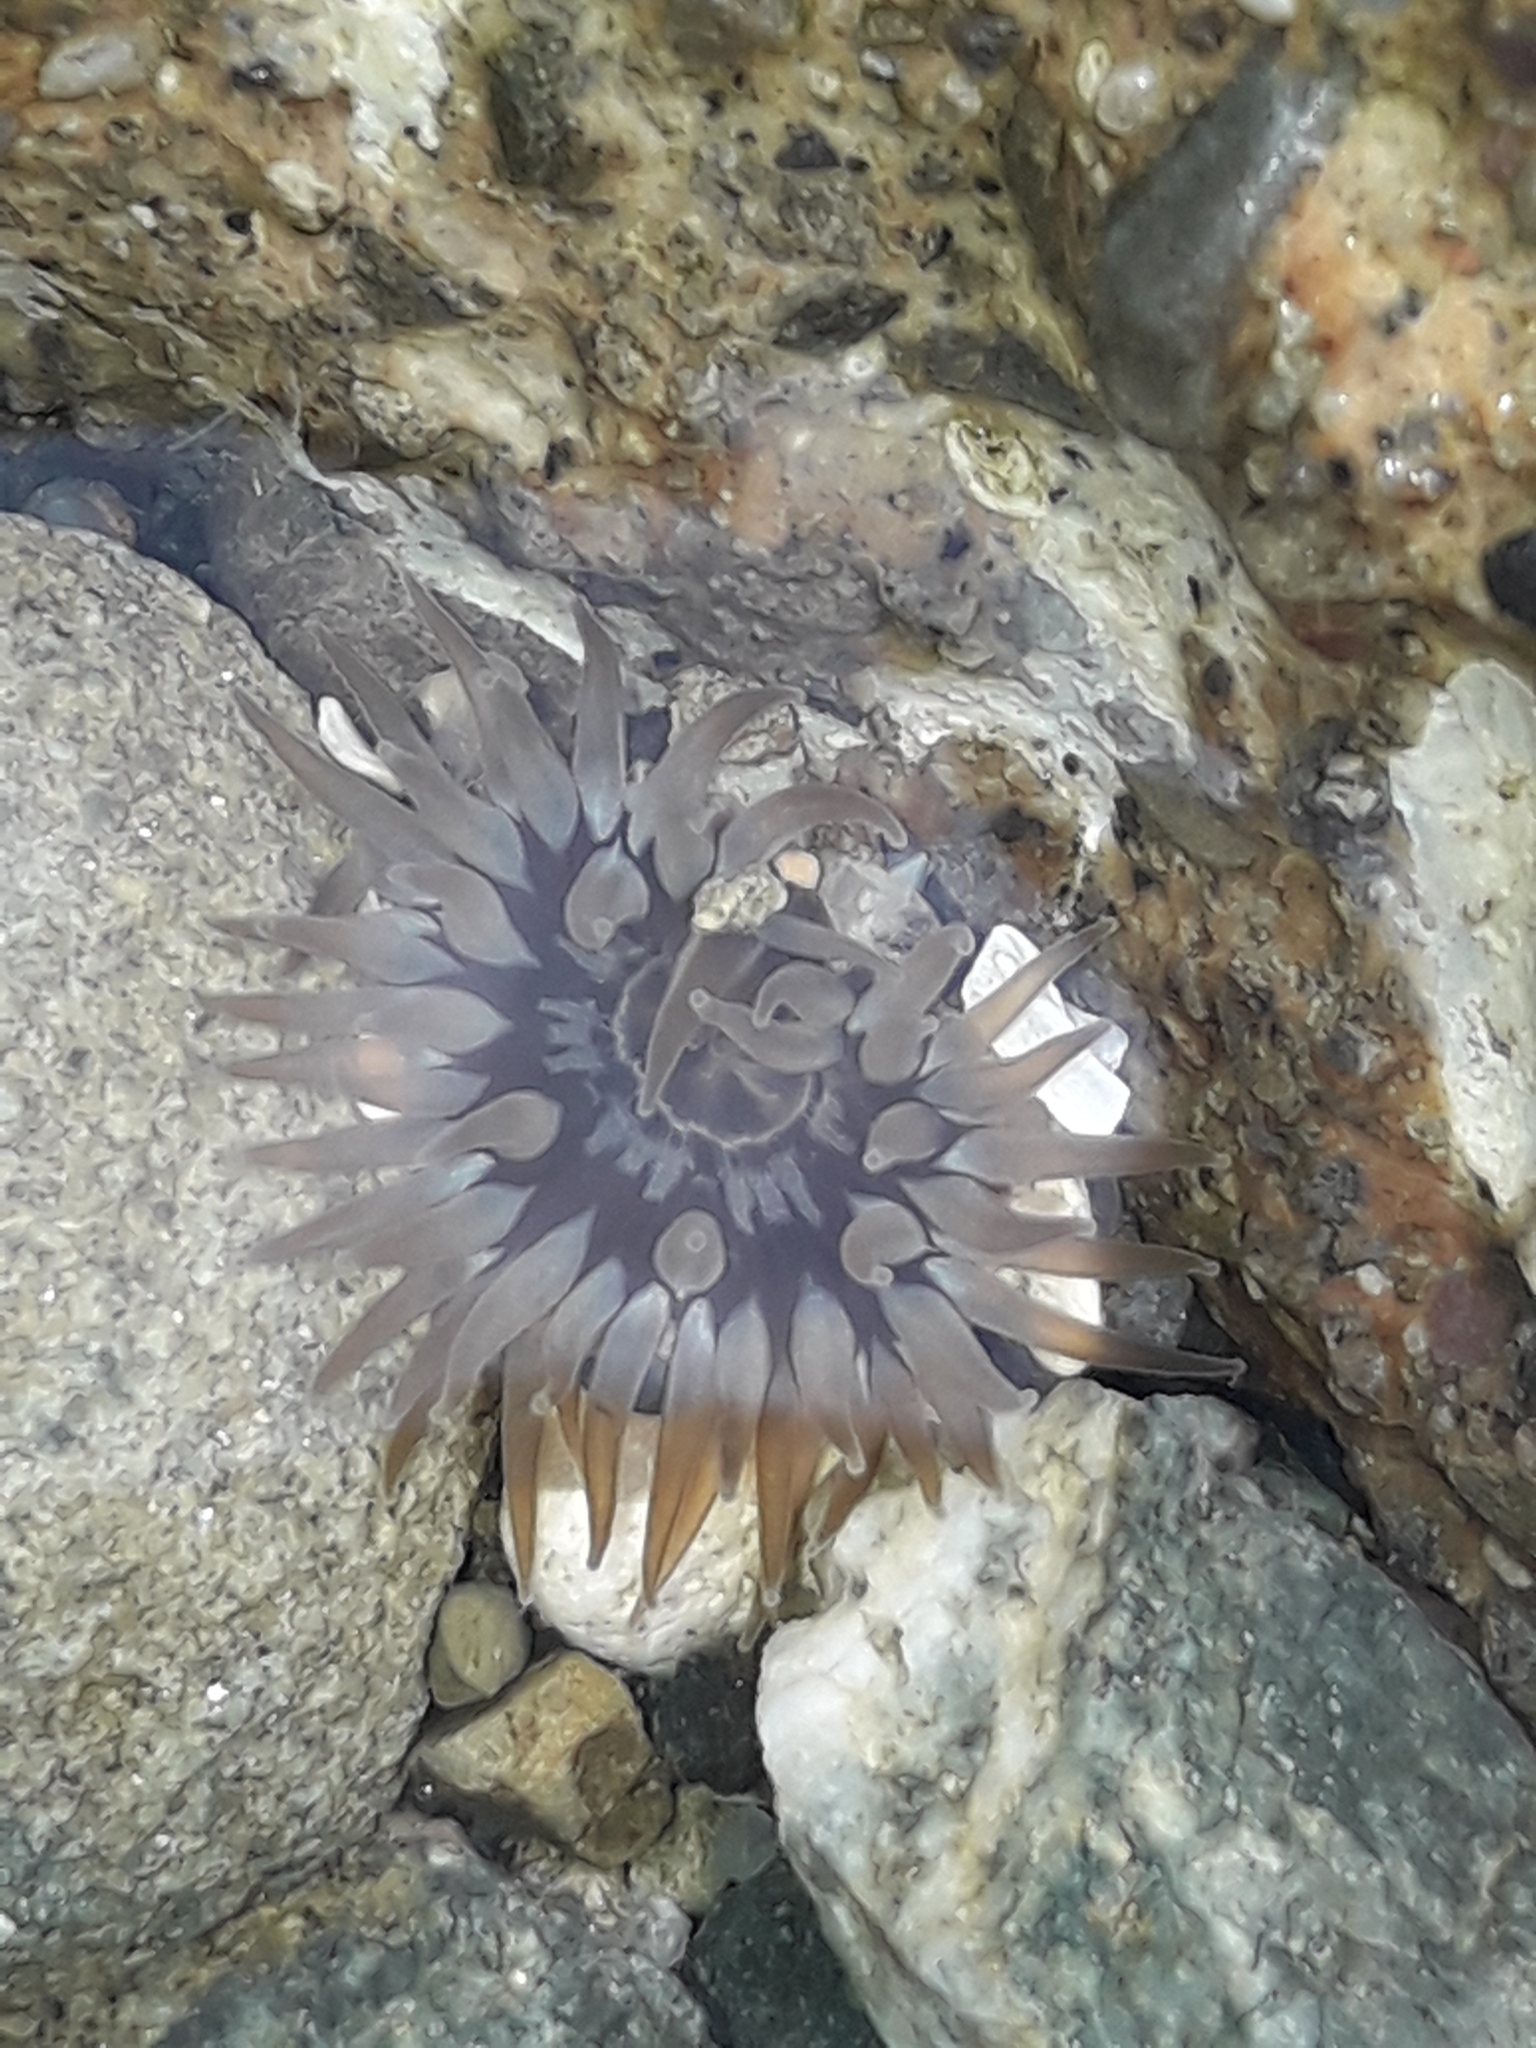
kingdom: Animalia
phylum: Cnidaria
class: Anthozoa
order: Actiniaria
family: Actiniidae
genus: Anthopleura
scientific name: Anthopleura hermaphroditica
